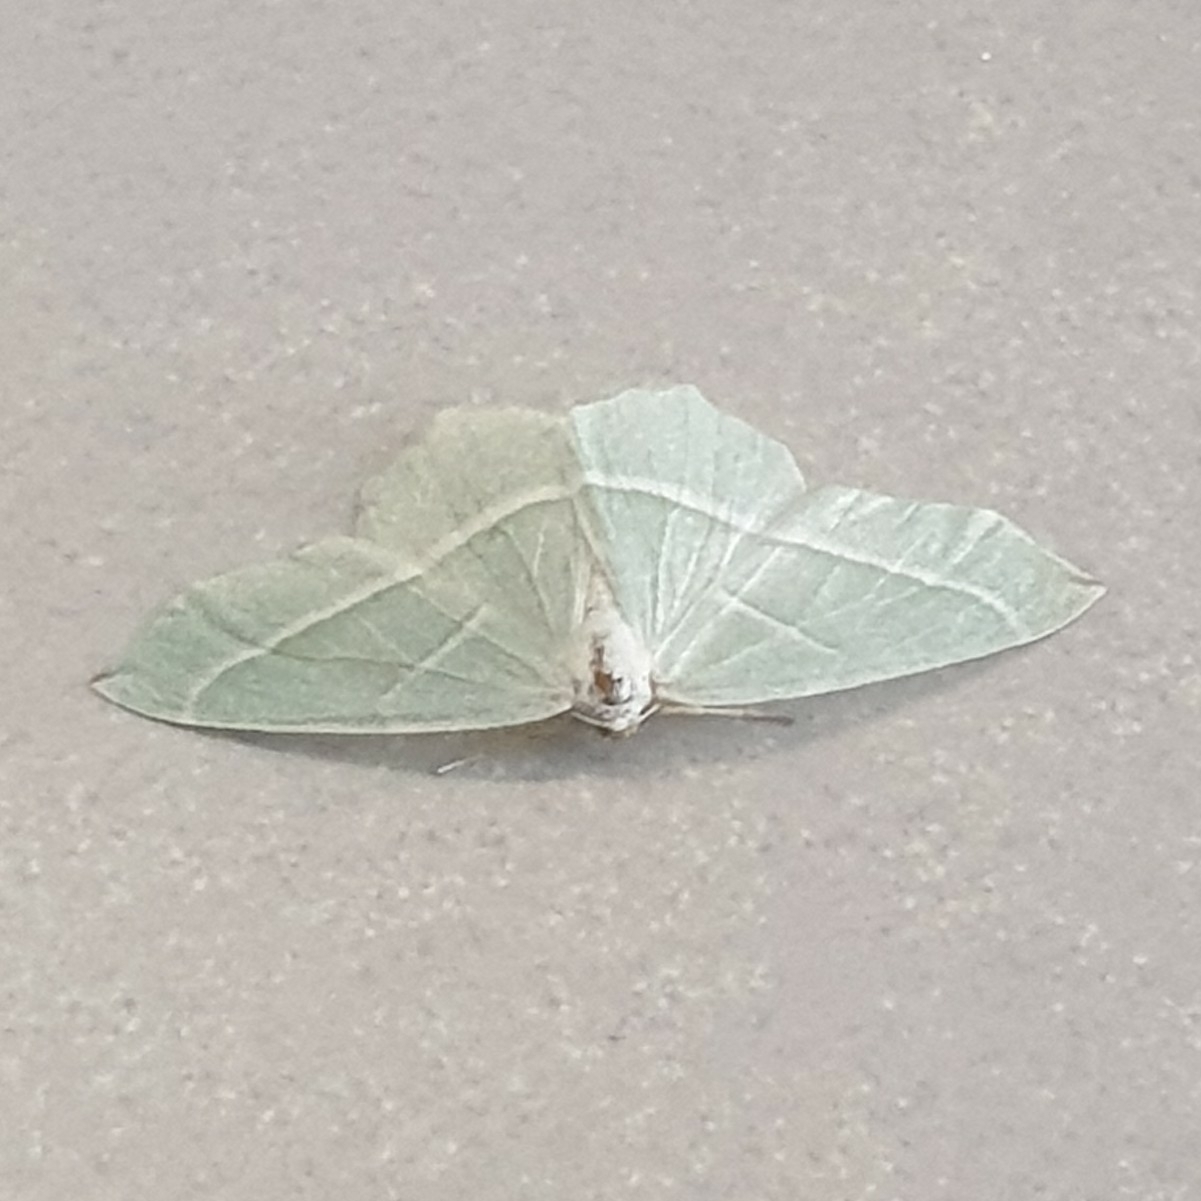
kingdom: Animalia
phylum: Arthropoda
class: Insecta
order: Lepidoptera
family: Geometridae
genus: Campaea
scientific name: Campaea margaritaria
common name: Light emerald
